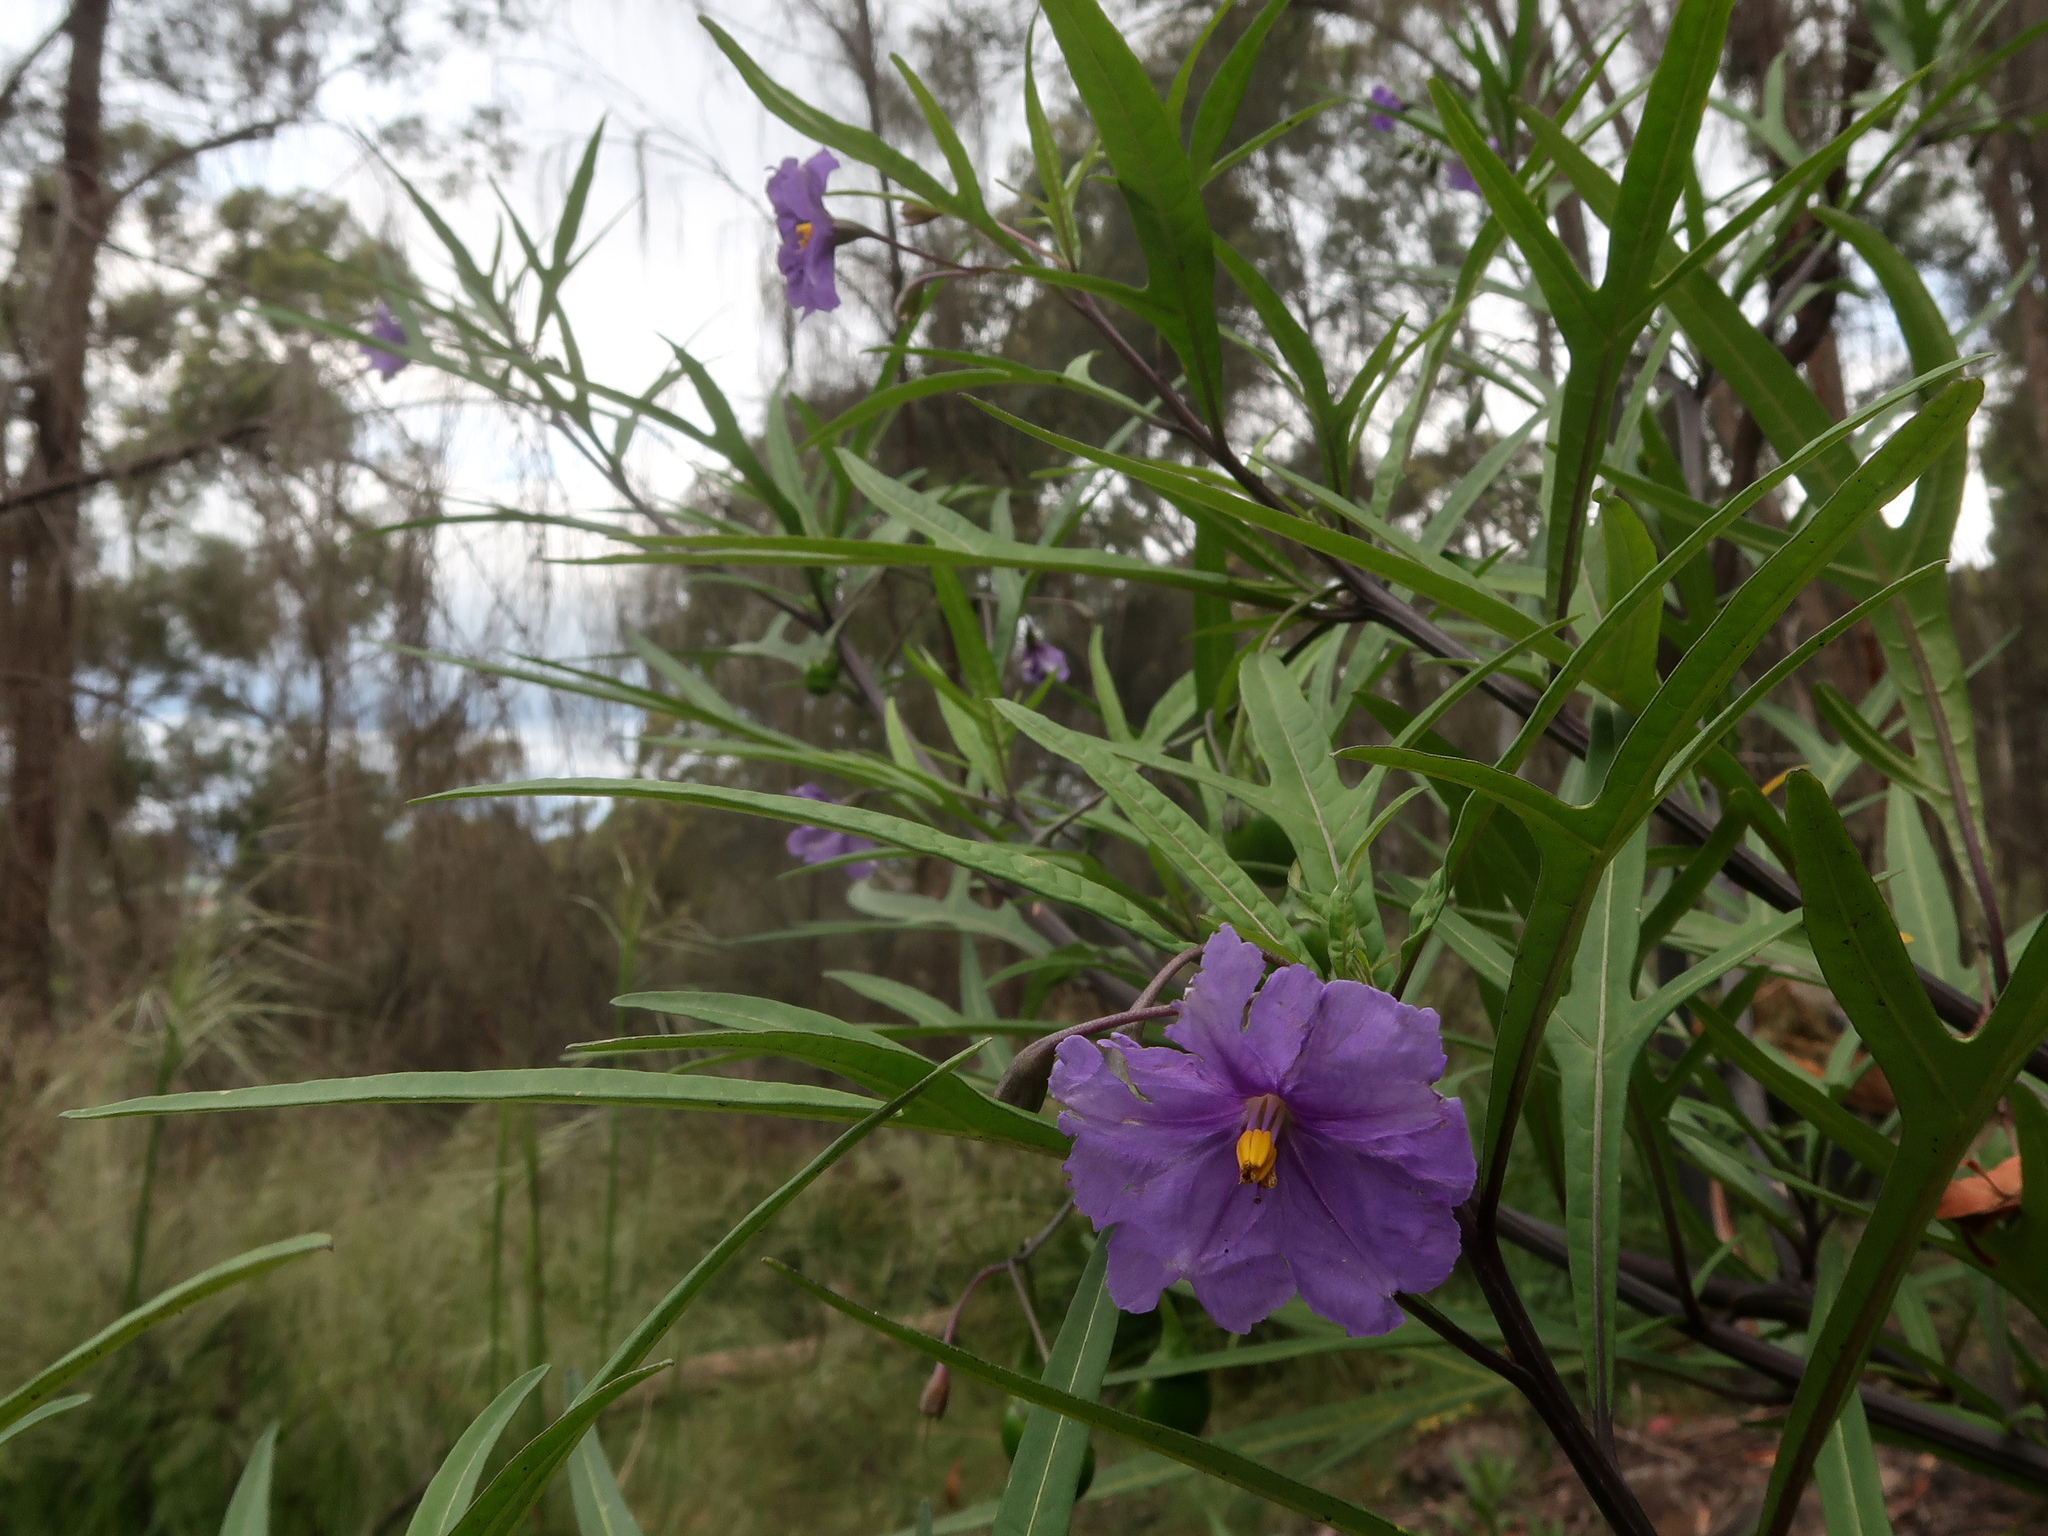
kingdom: Plantae
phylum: Tracheophyta
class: Magnoliopsida
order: Solanales
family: Solanaceae
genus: Solanum
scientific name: Solanum laciniatum
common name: Kangaroo-apple
